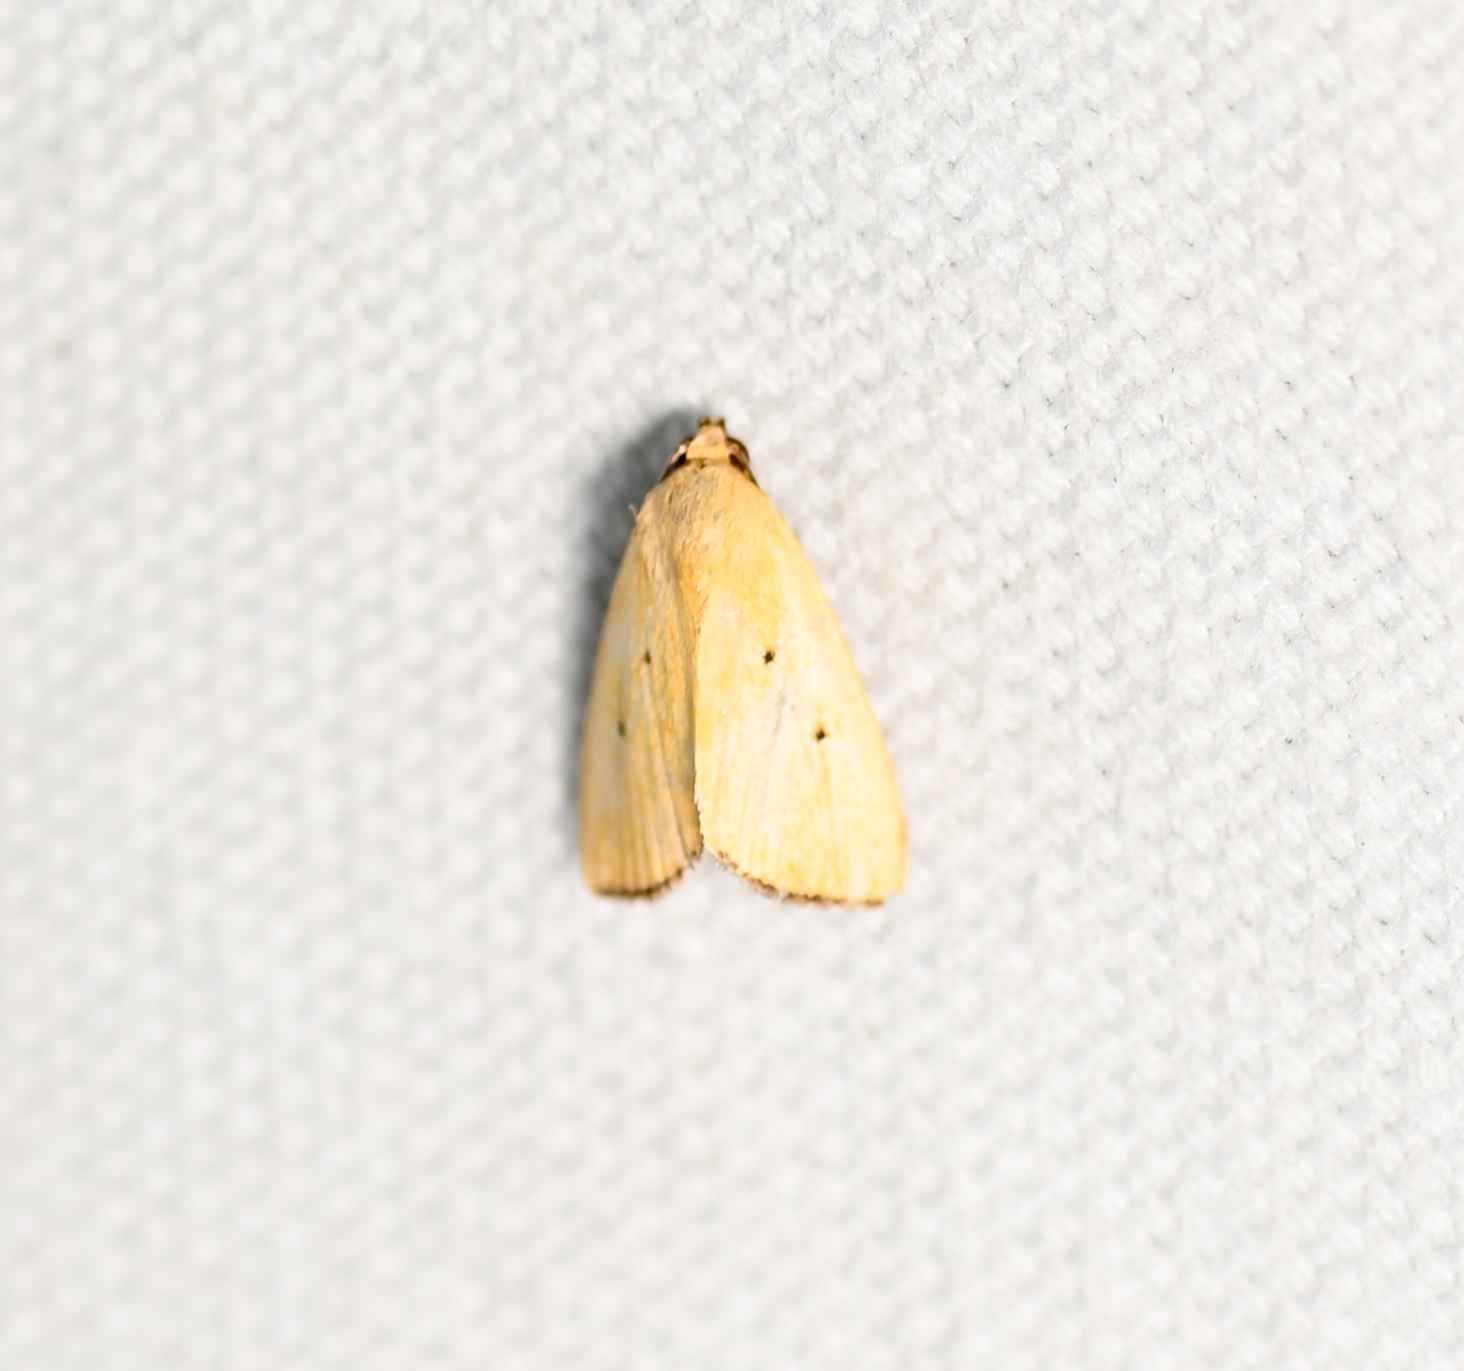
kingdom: Animalia
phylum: Arthropoda
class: Insecta
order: Lepidoptera
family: Noctuidae
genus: Marimatha
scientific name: Marimatha nigrofimbria
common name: Black-bordered lemon moth
